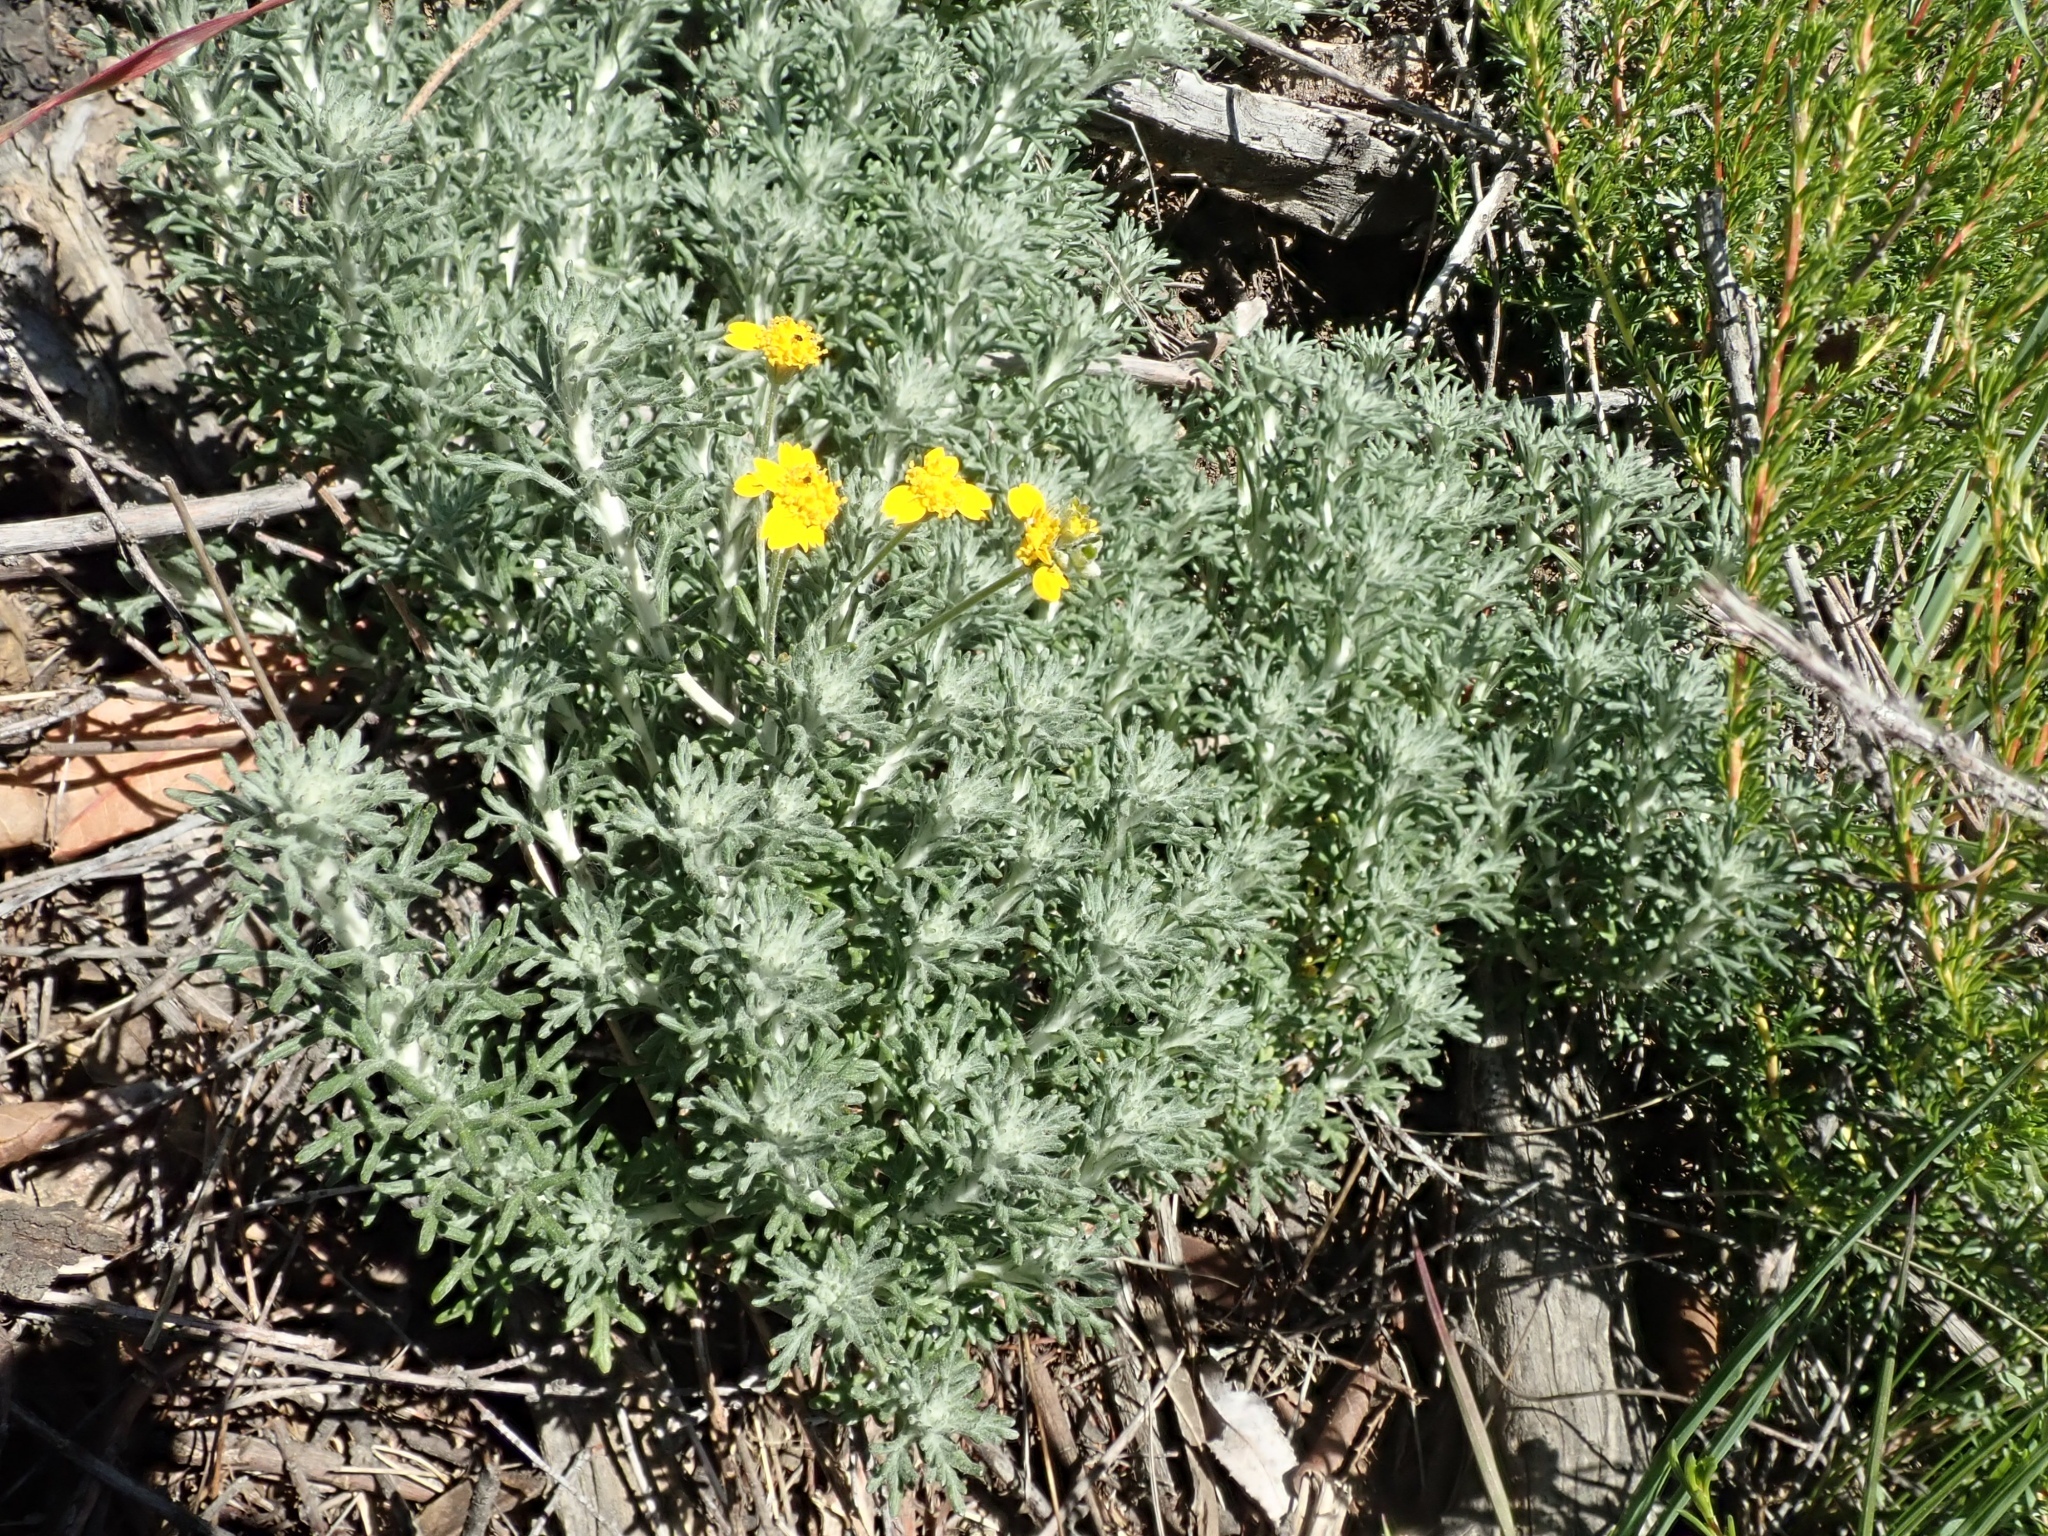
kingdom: Plantae
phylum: Tracheophyta
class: Magnoliopsida
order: Asterales
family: Asteraceae
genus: Eriophyllum
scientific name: Eriophyllum confertiflorum
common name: Golden-yarrow
